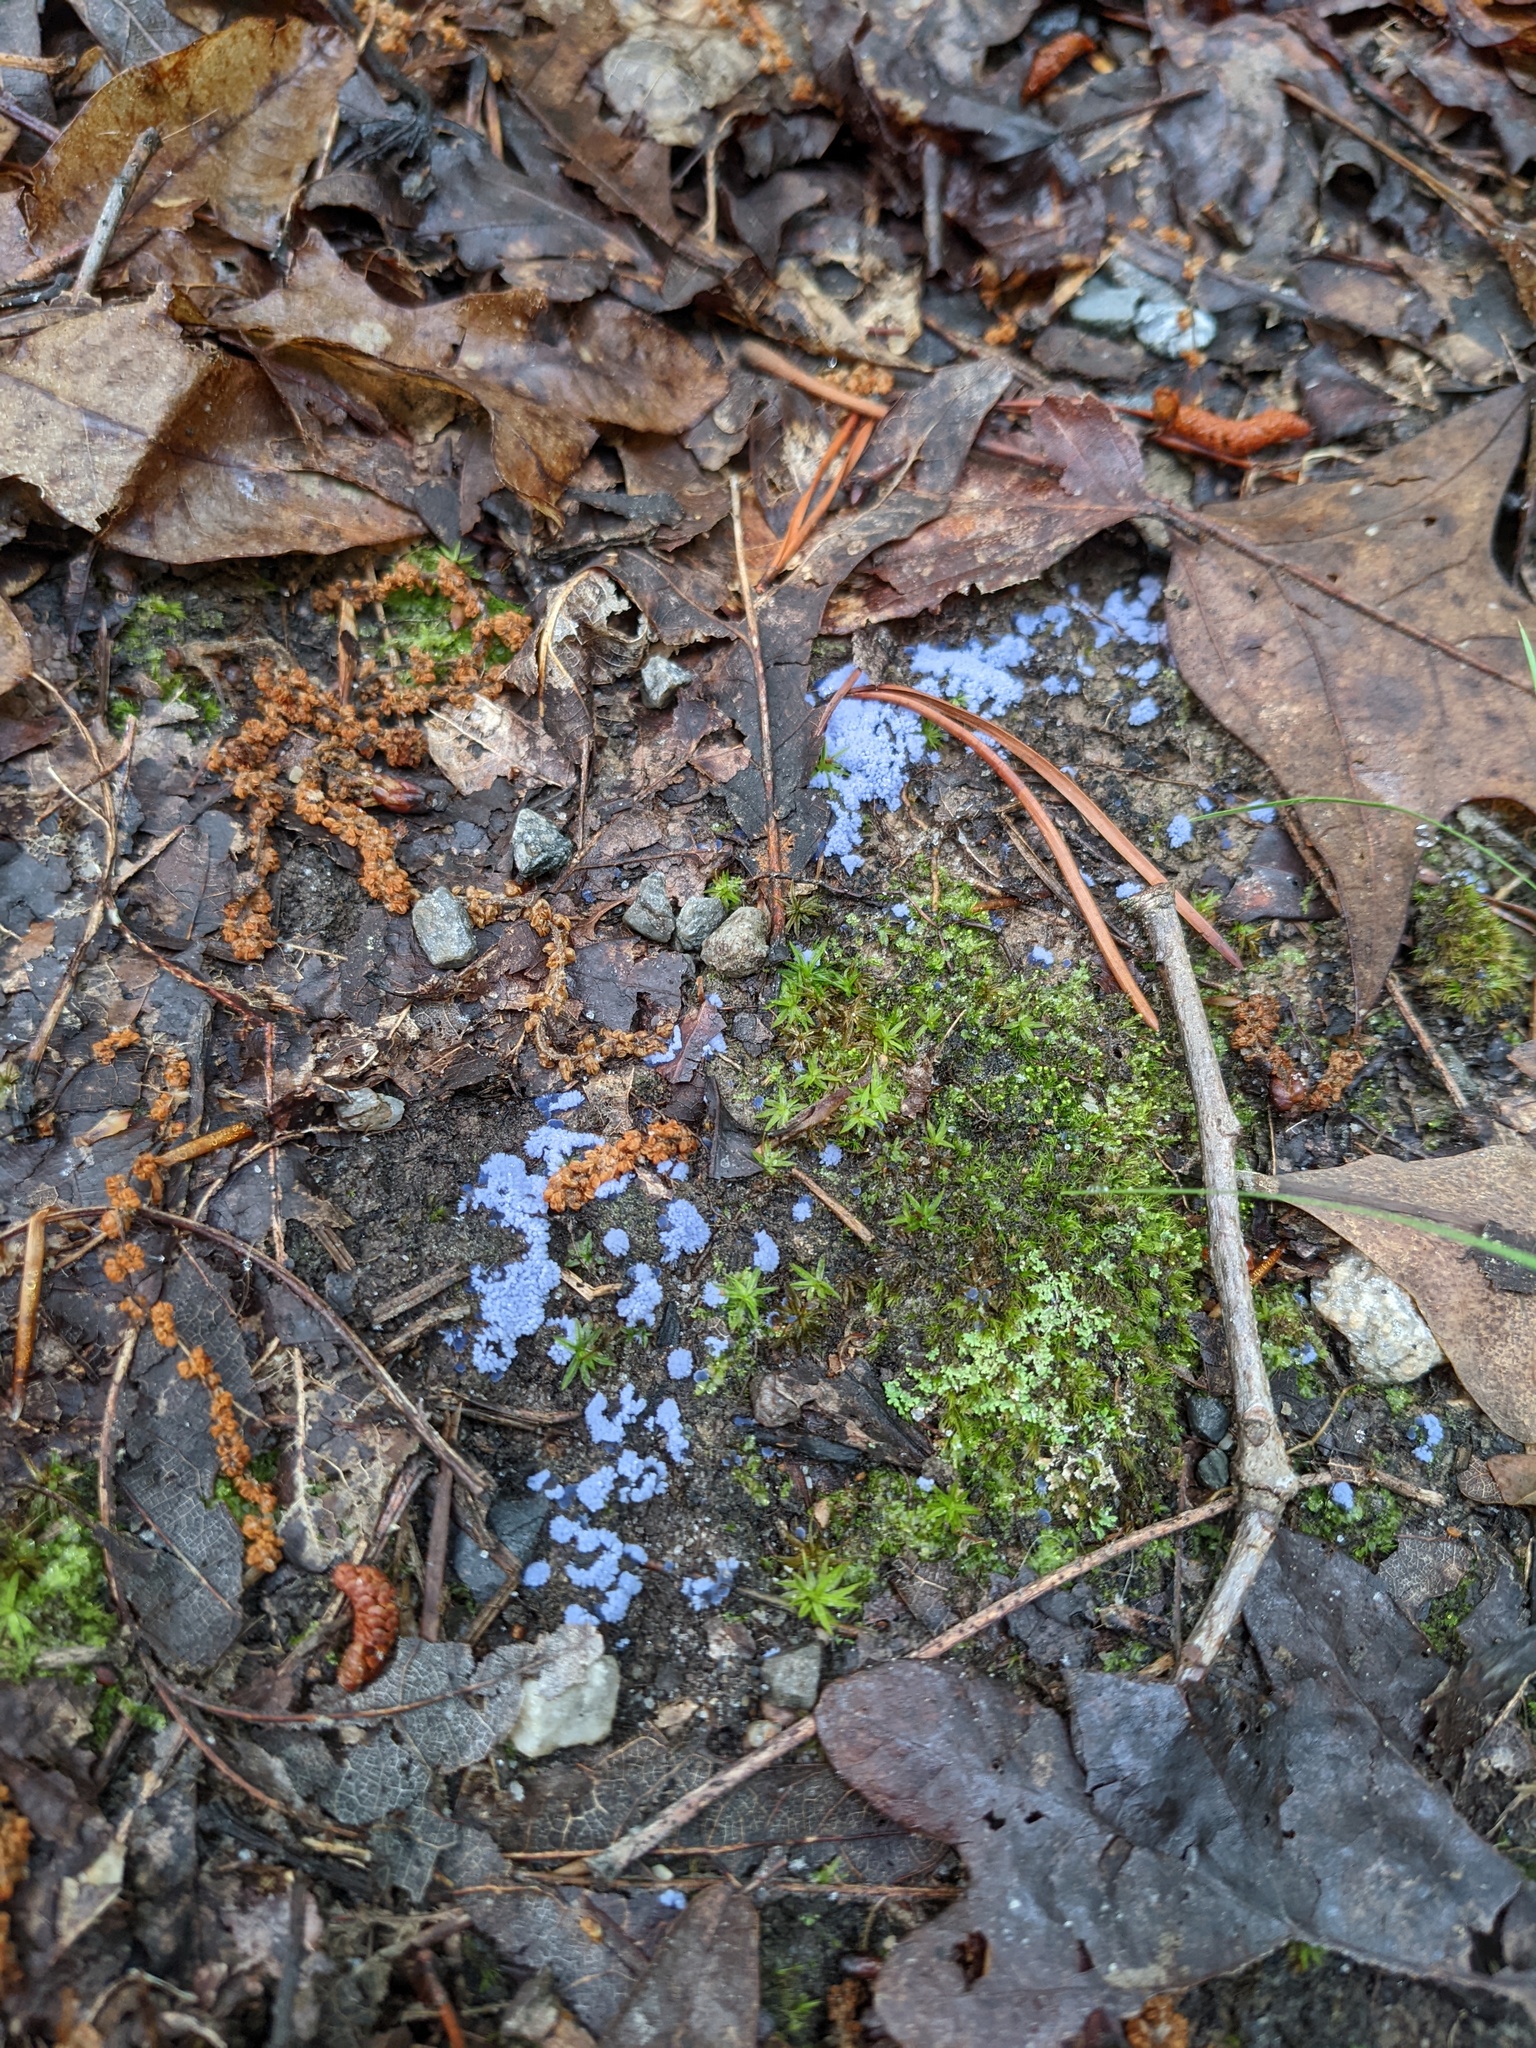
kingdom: Fungi
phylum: Ascomycota
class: Pezizomycetes
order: Pezizales
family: Pezizaceae
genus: Chromelosporiopsis
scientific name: Chromelosporiopsis coerulescens
